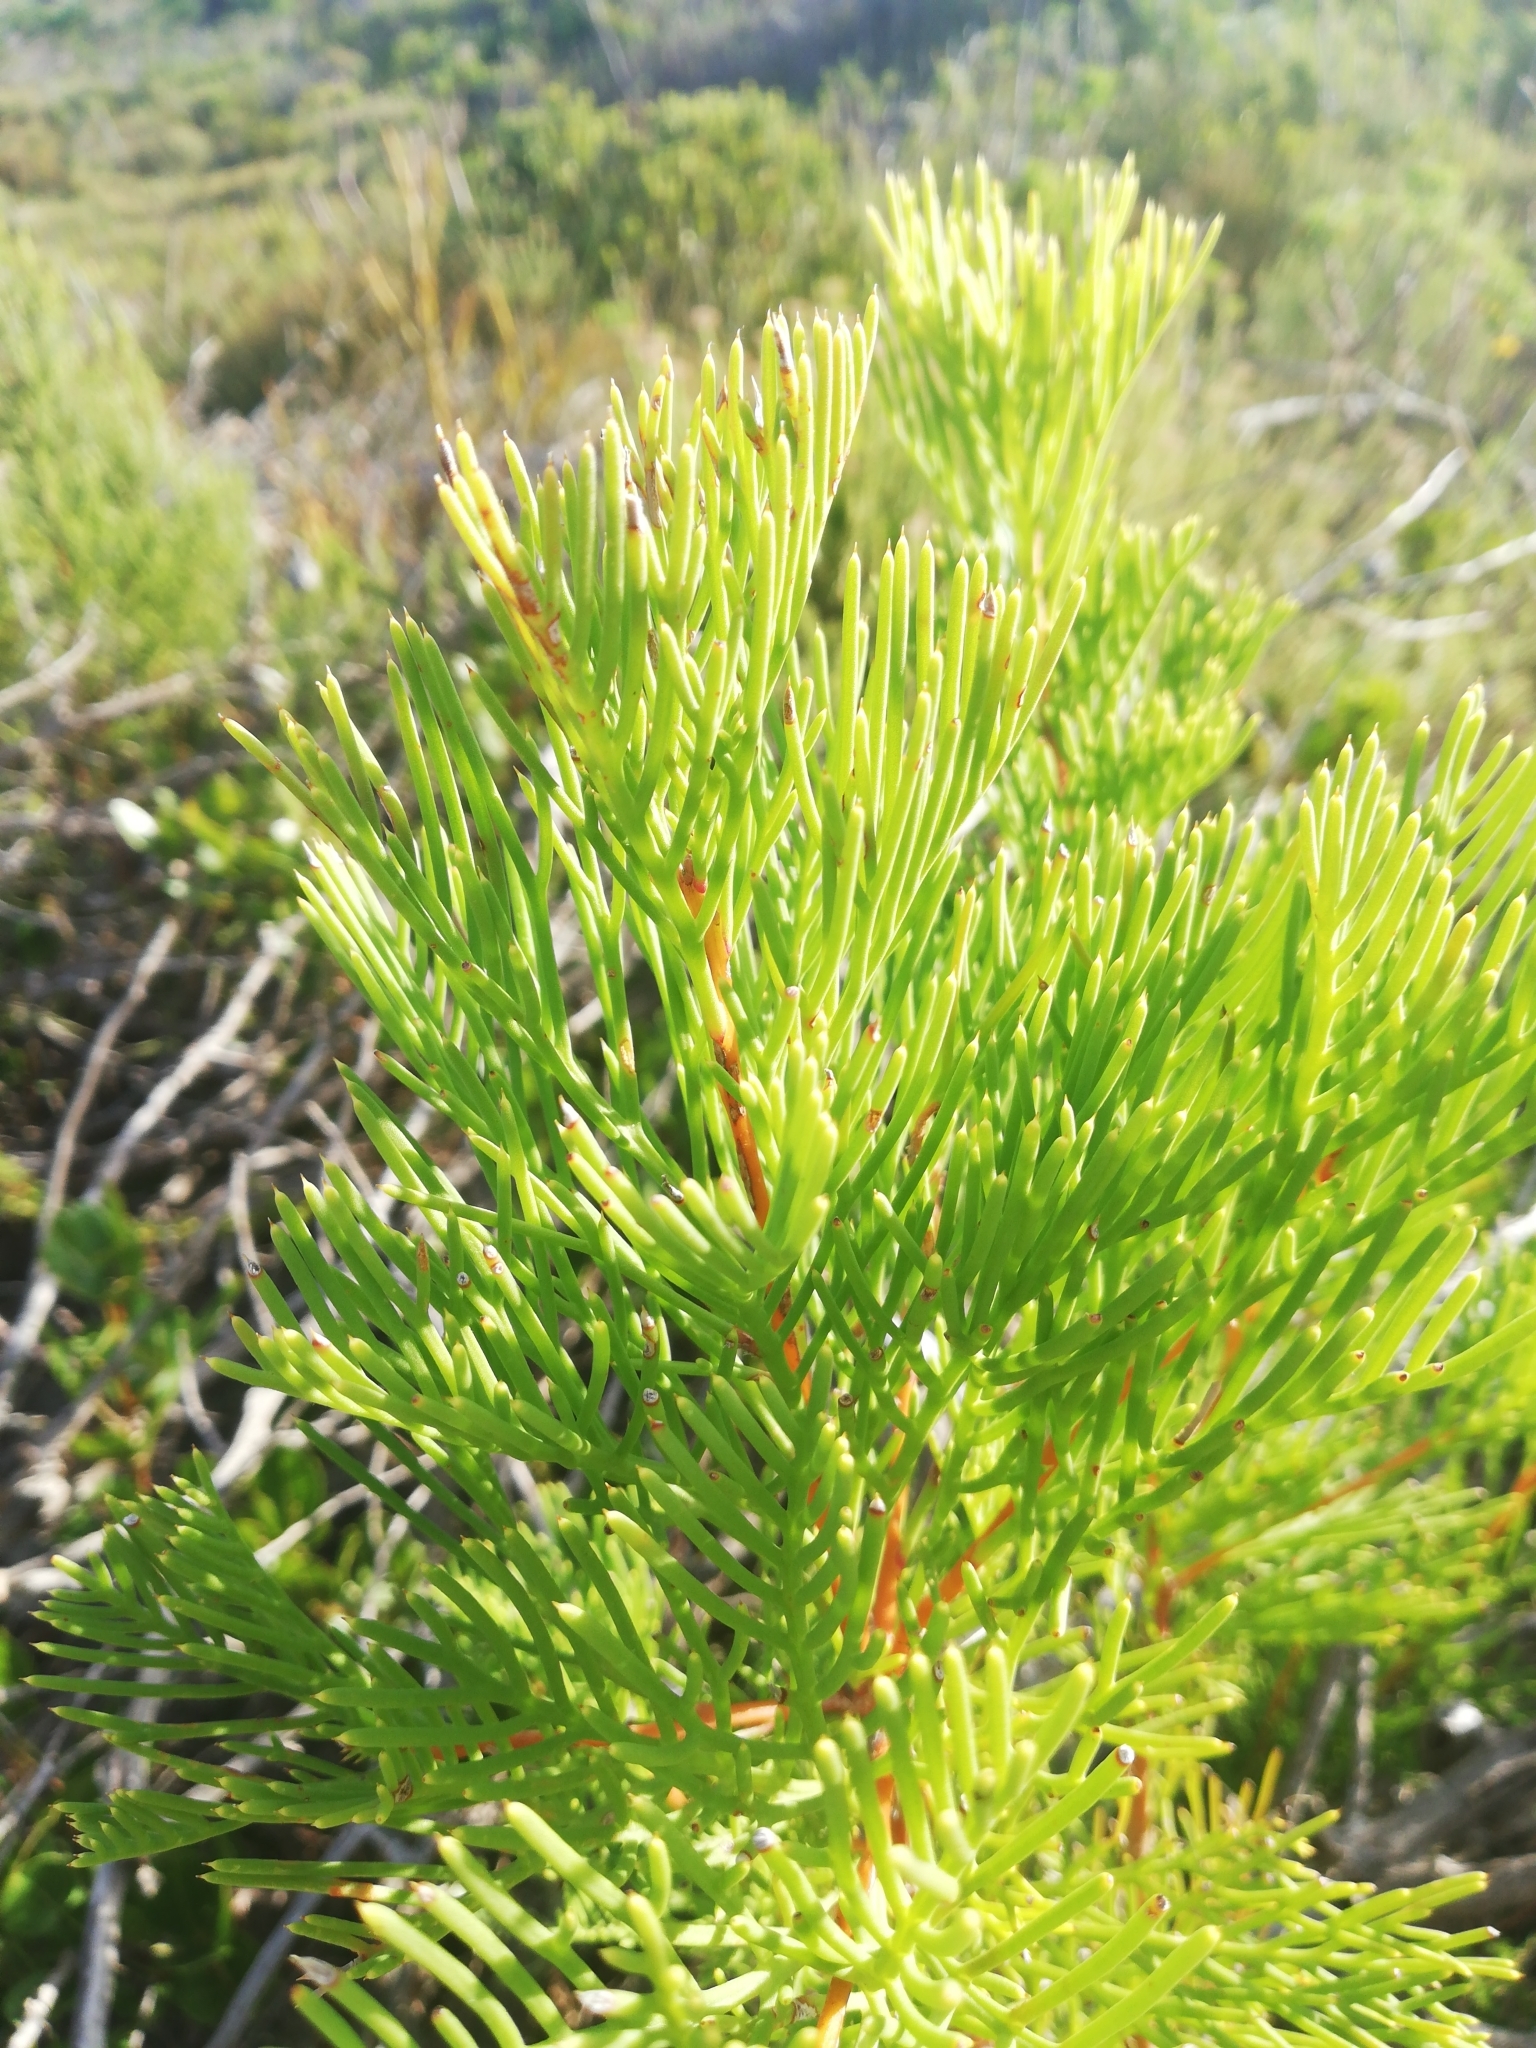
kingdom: Plantae
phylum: Tracheophyta
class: Magnoliopsida
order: Proteales
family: Proteaceae
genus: Hakea
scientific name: Hakea drupacea
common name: Sweet hakea
